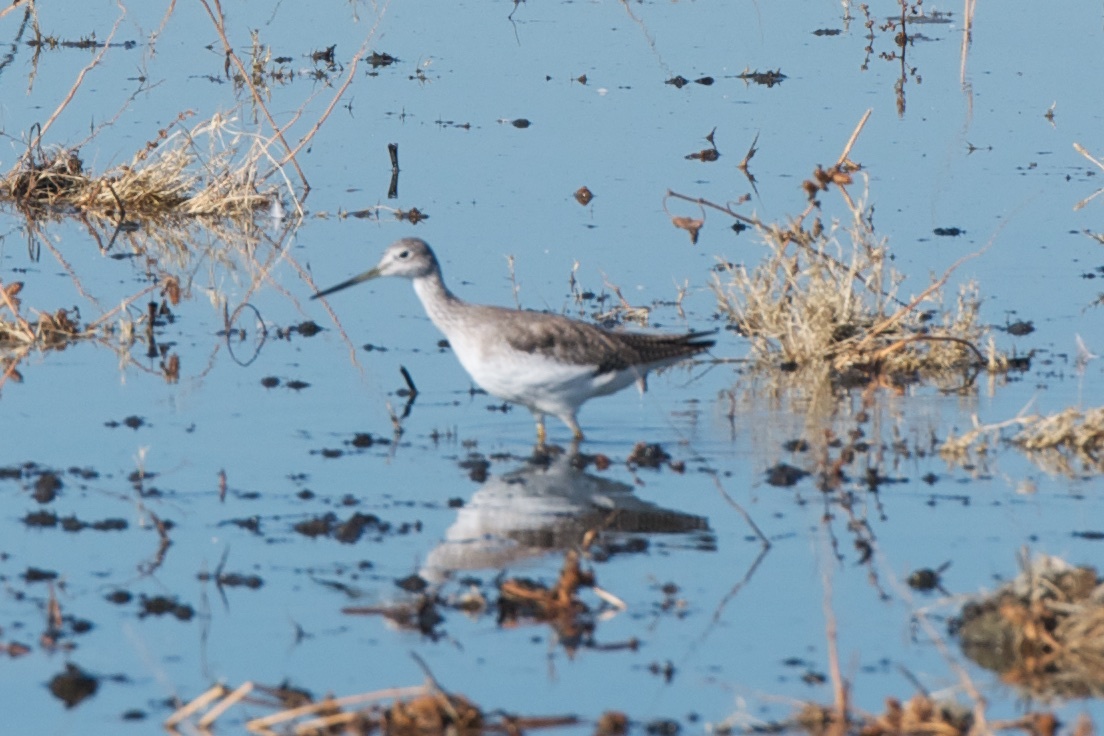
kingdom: Animalia
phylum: Chordata
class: Aves
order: Charadriiformes
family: Scolopacidae
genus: Tringa
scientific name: Tringa melanoleuca
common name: Greater yellowlegs
